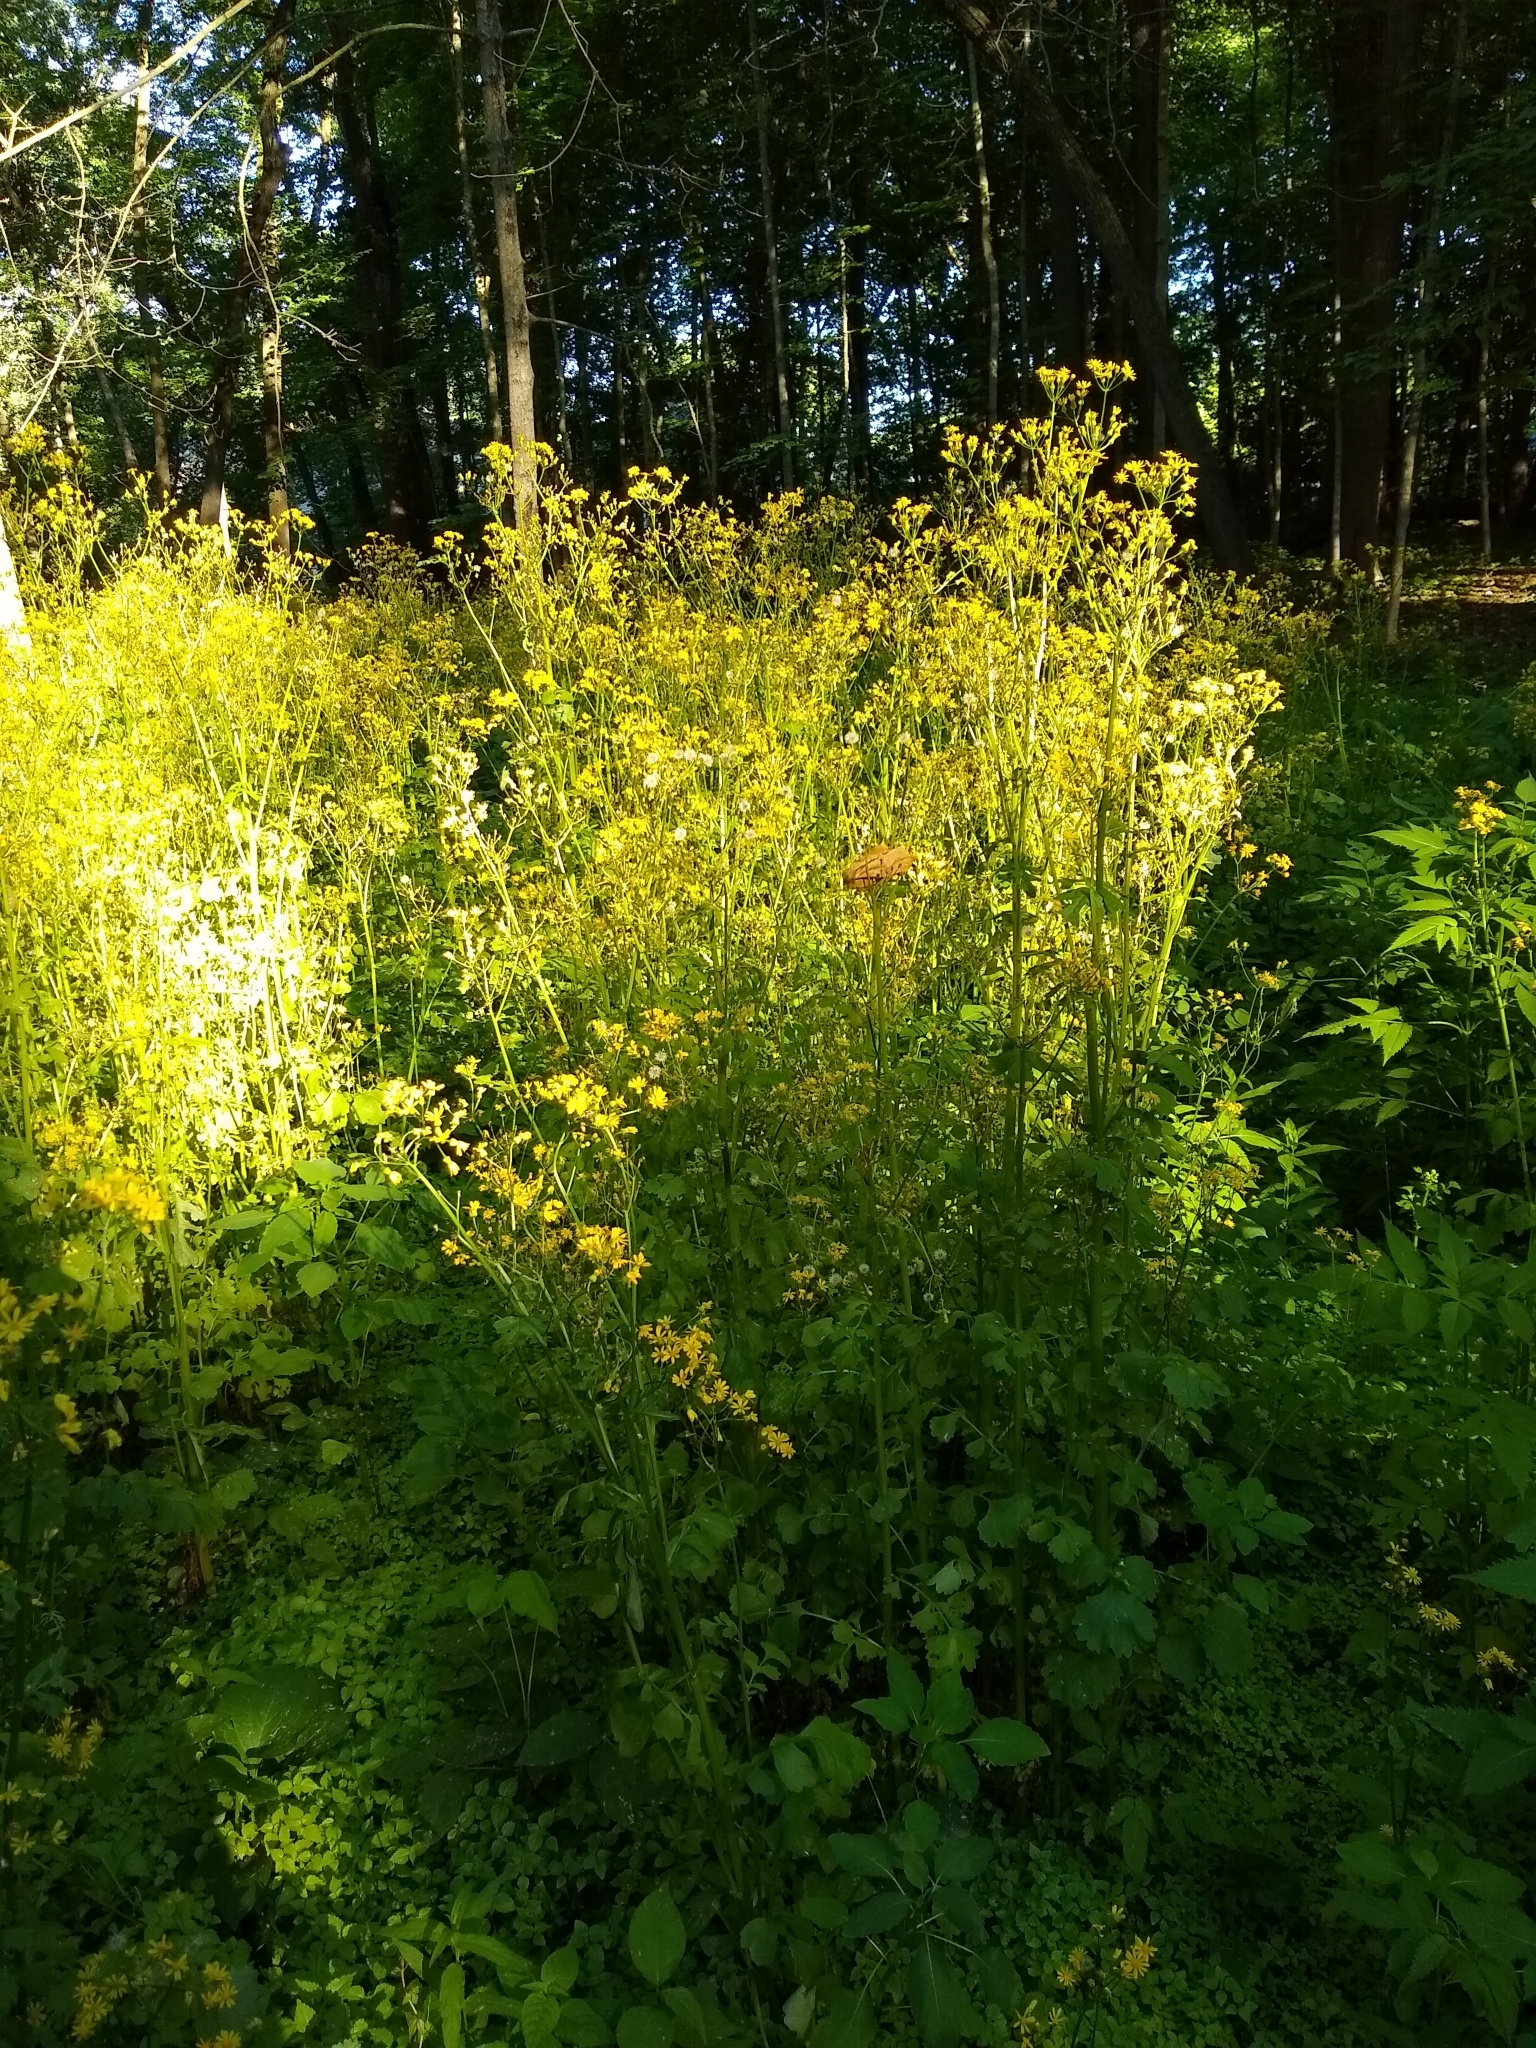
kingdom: Plantae
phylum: Tracheophyta
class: Magnoliopsida
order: Asterales
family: Asteraceae
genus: Packera
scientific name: Packera glabella
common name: Butterweed
